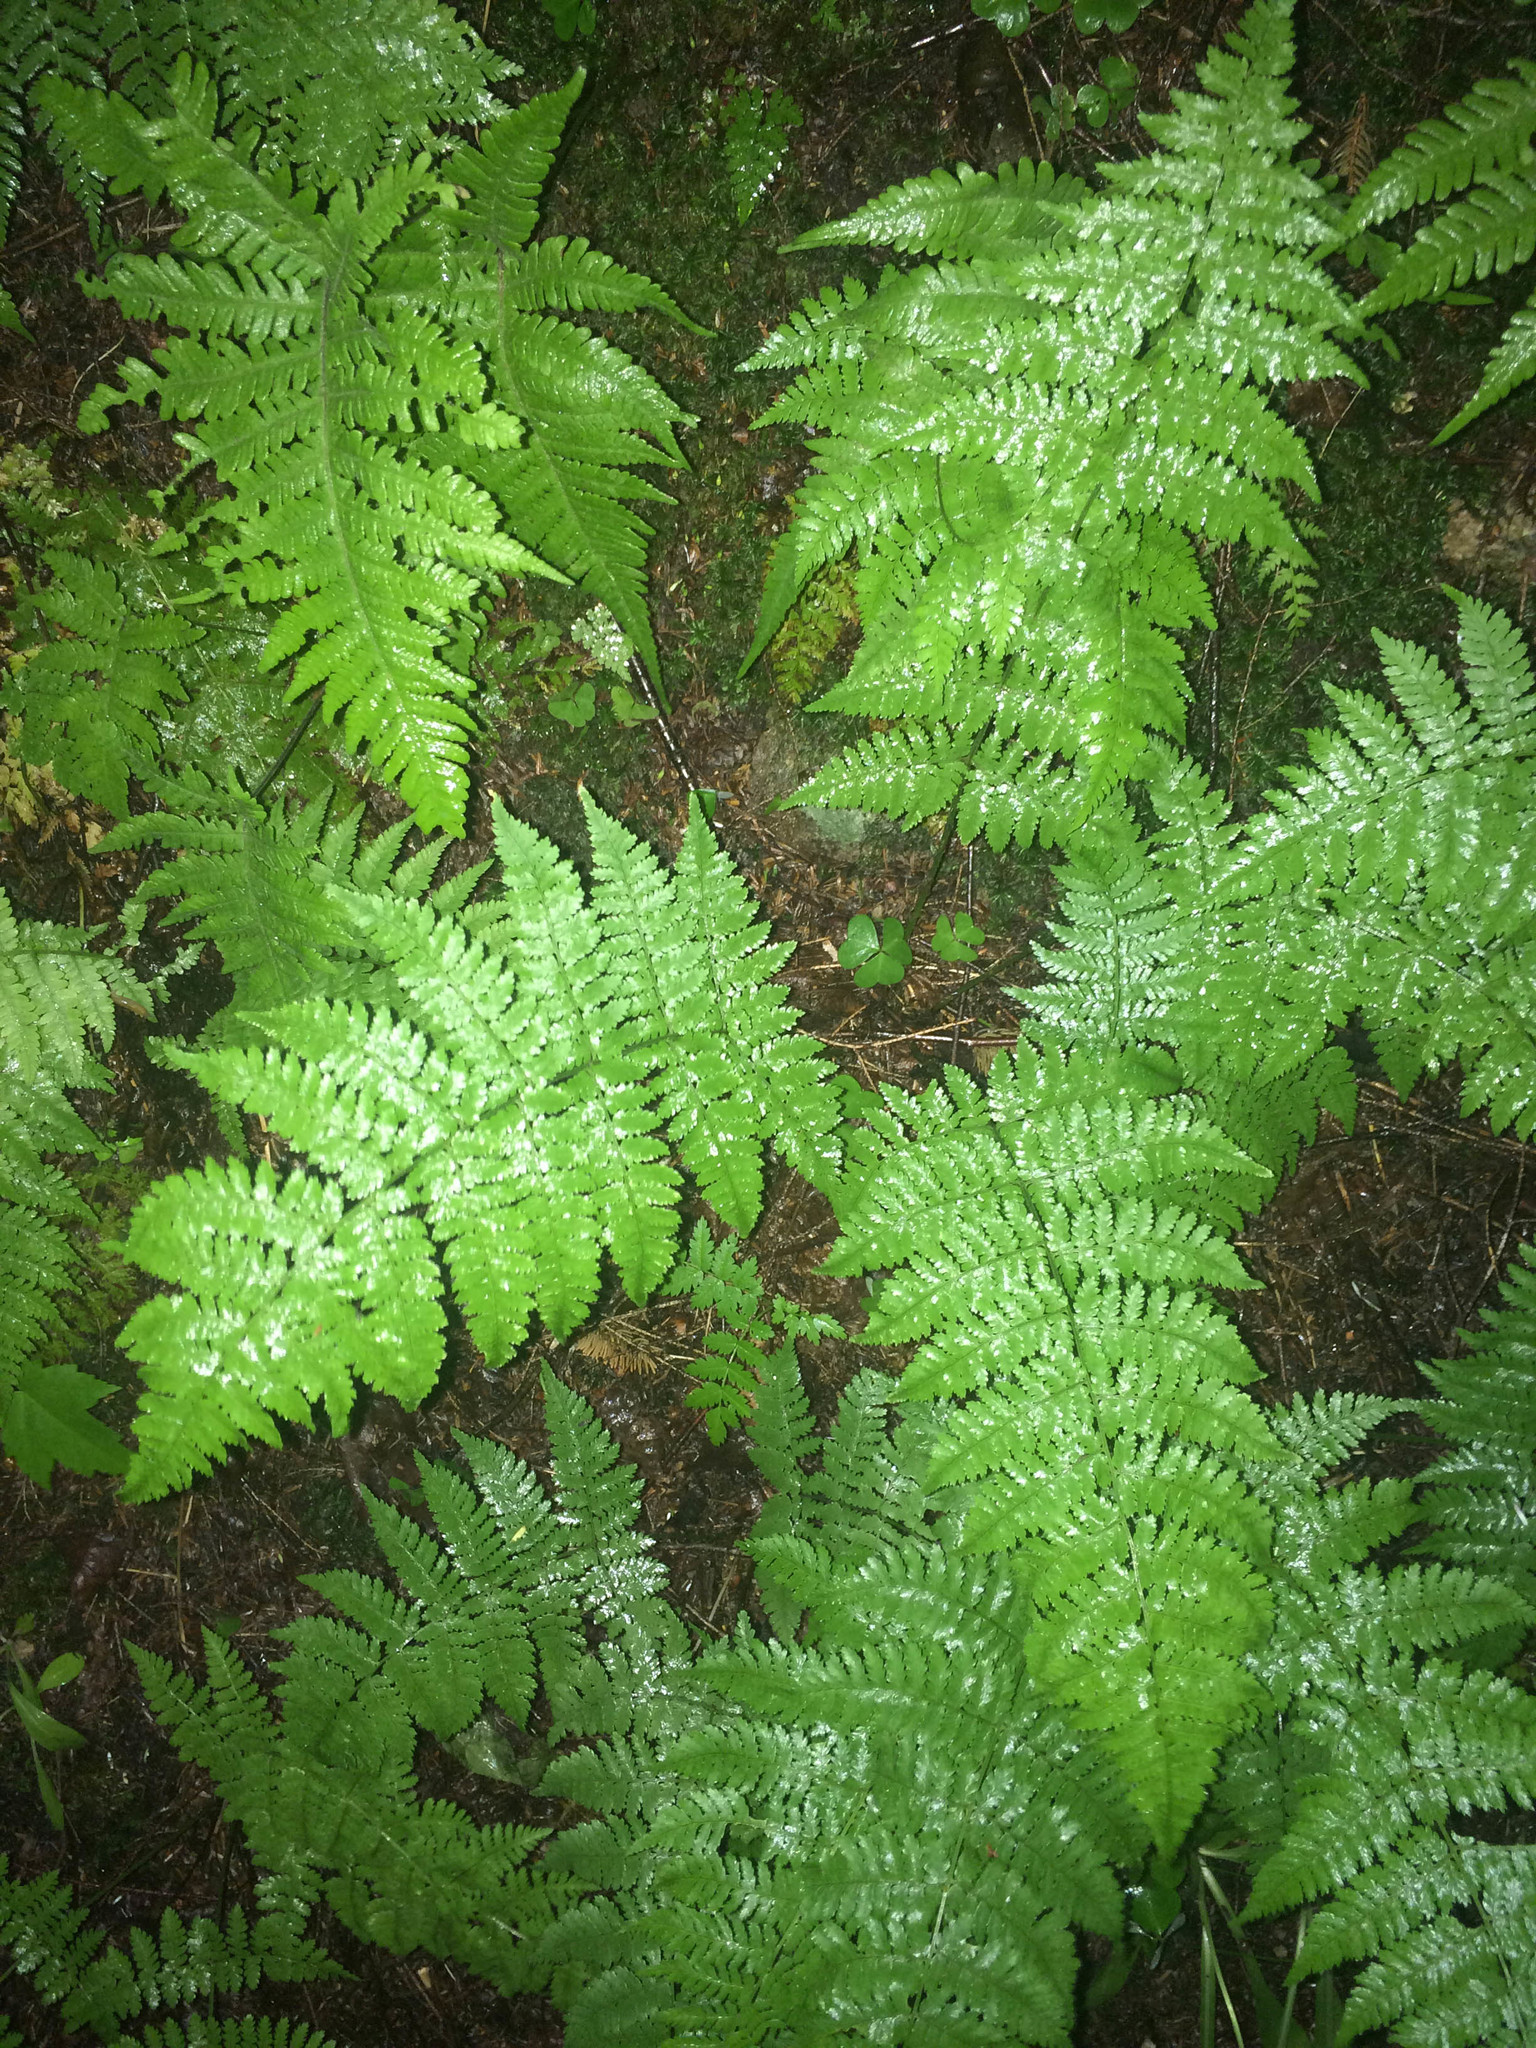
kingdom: Plantae
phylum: Tracheophyta
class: Polypodiopsida
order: Polypodiales
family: Dryopteridaceae
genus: Dryopteris
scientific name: Dryopteris intermedia
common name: Evergreen wood fern
